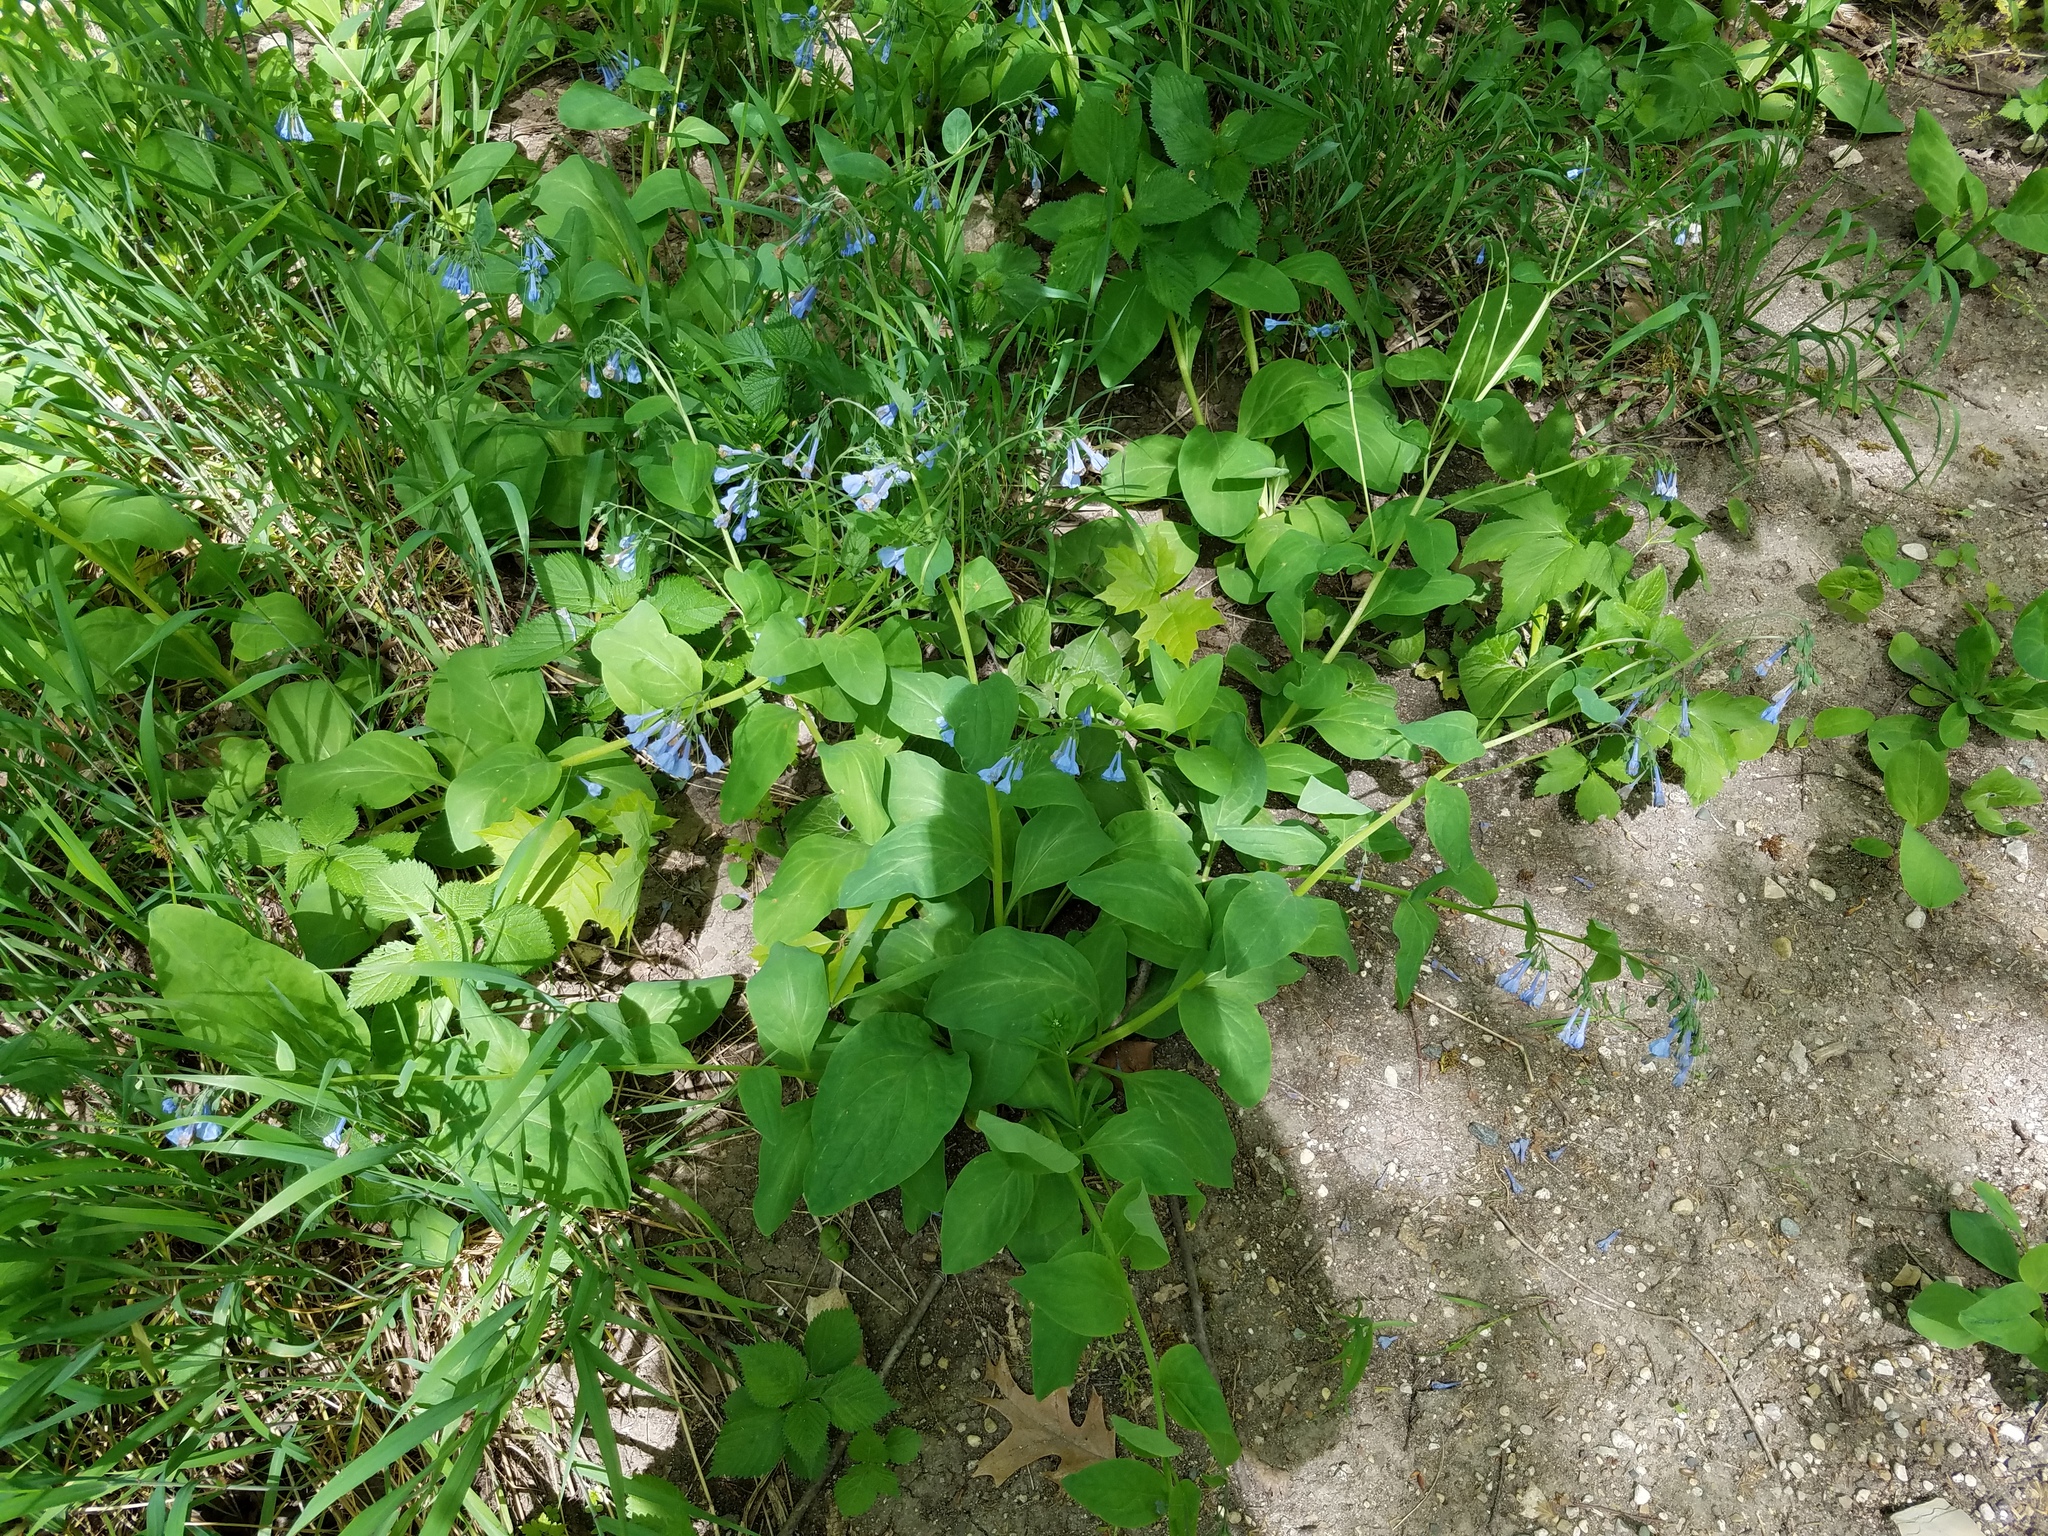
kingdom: Plantae
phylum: Tracheophyta
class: Magnoliopsida
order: Boraginales
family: Boraginaceae
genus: Mertensia
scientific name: Mertensia virginica
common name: Virginia bluebells
